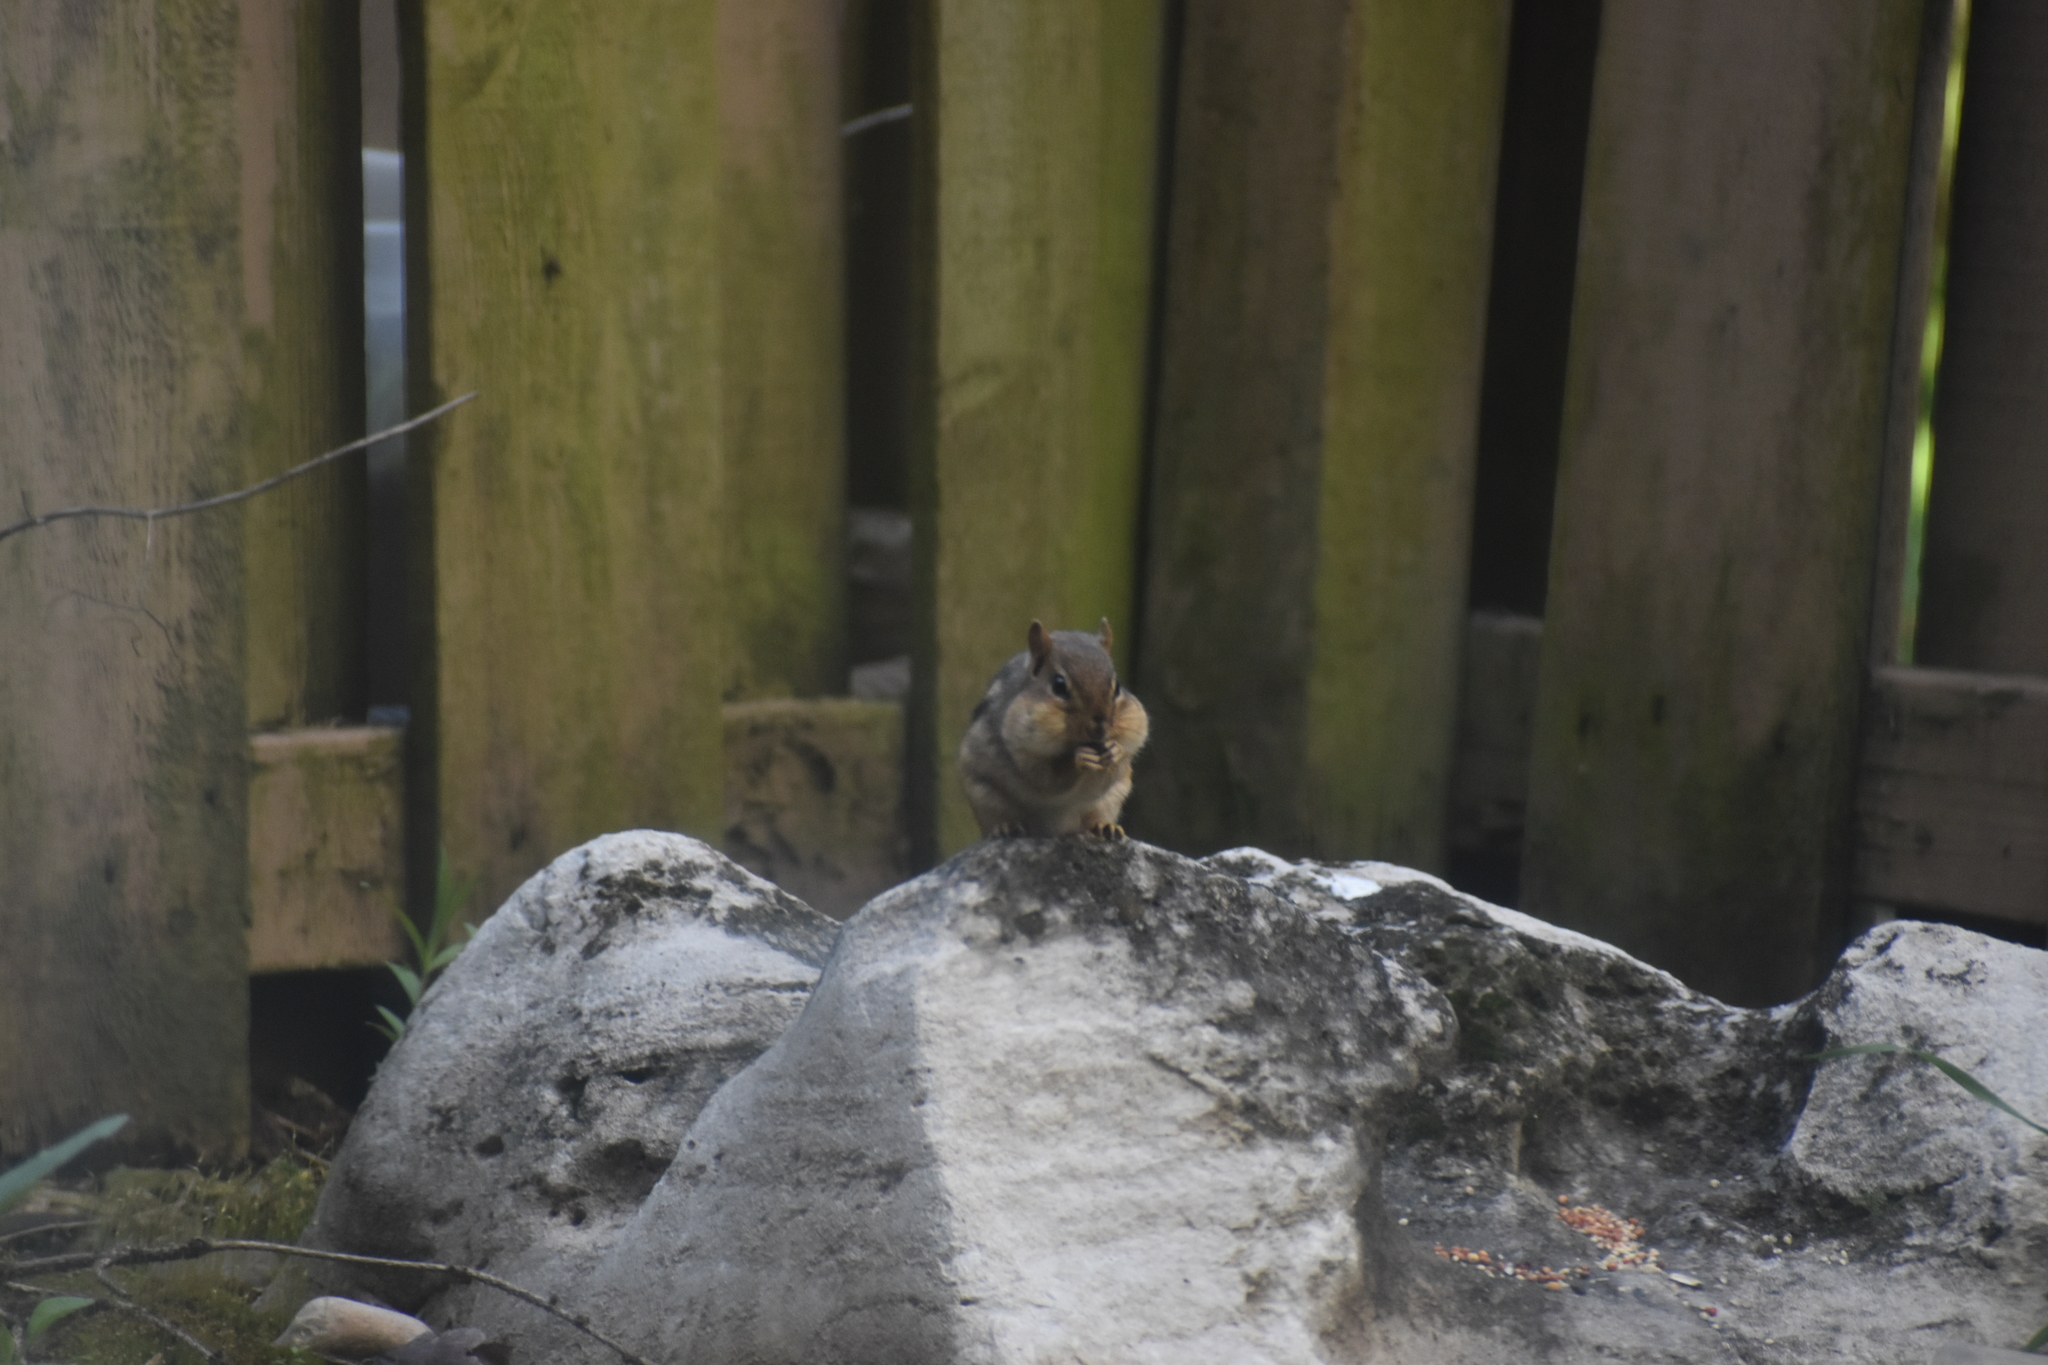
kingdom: Animalia
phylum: Chordata
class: Mammalia
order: Rodentia
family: Sciuridae
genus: Tamias
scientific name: Tamias striatus
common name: Eastern chipmunk
